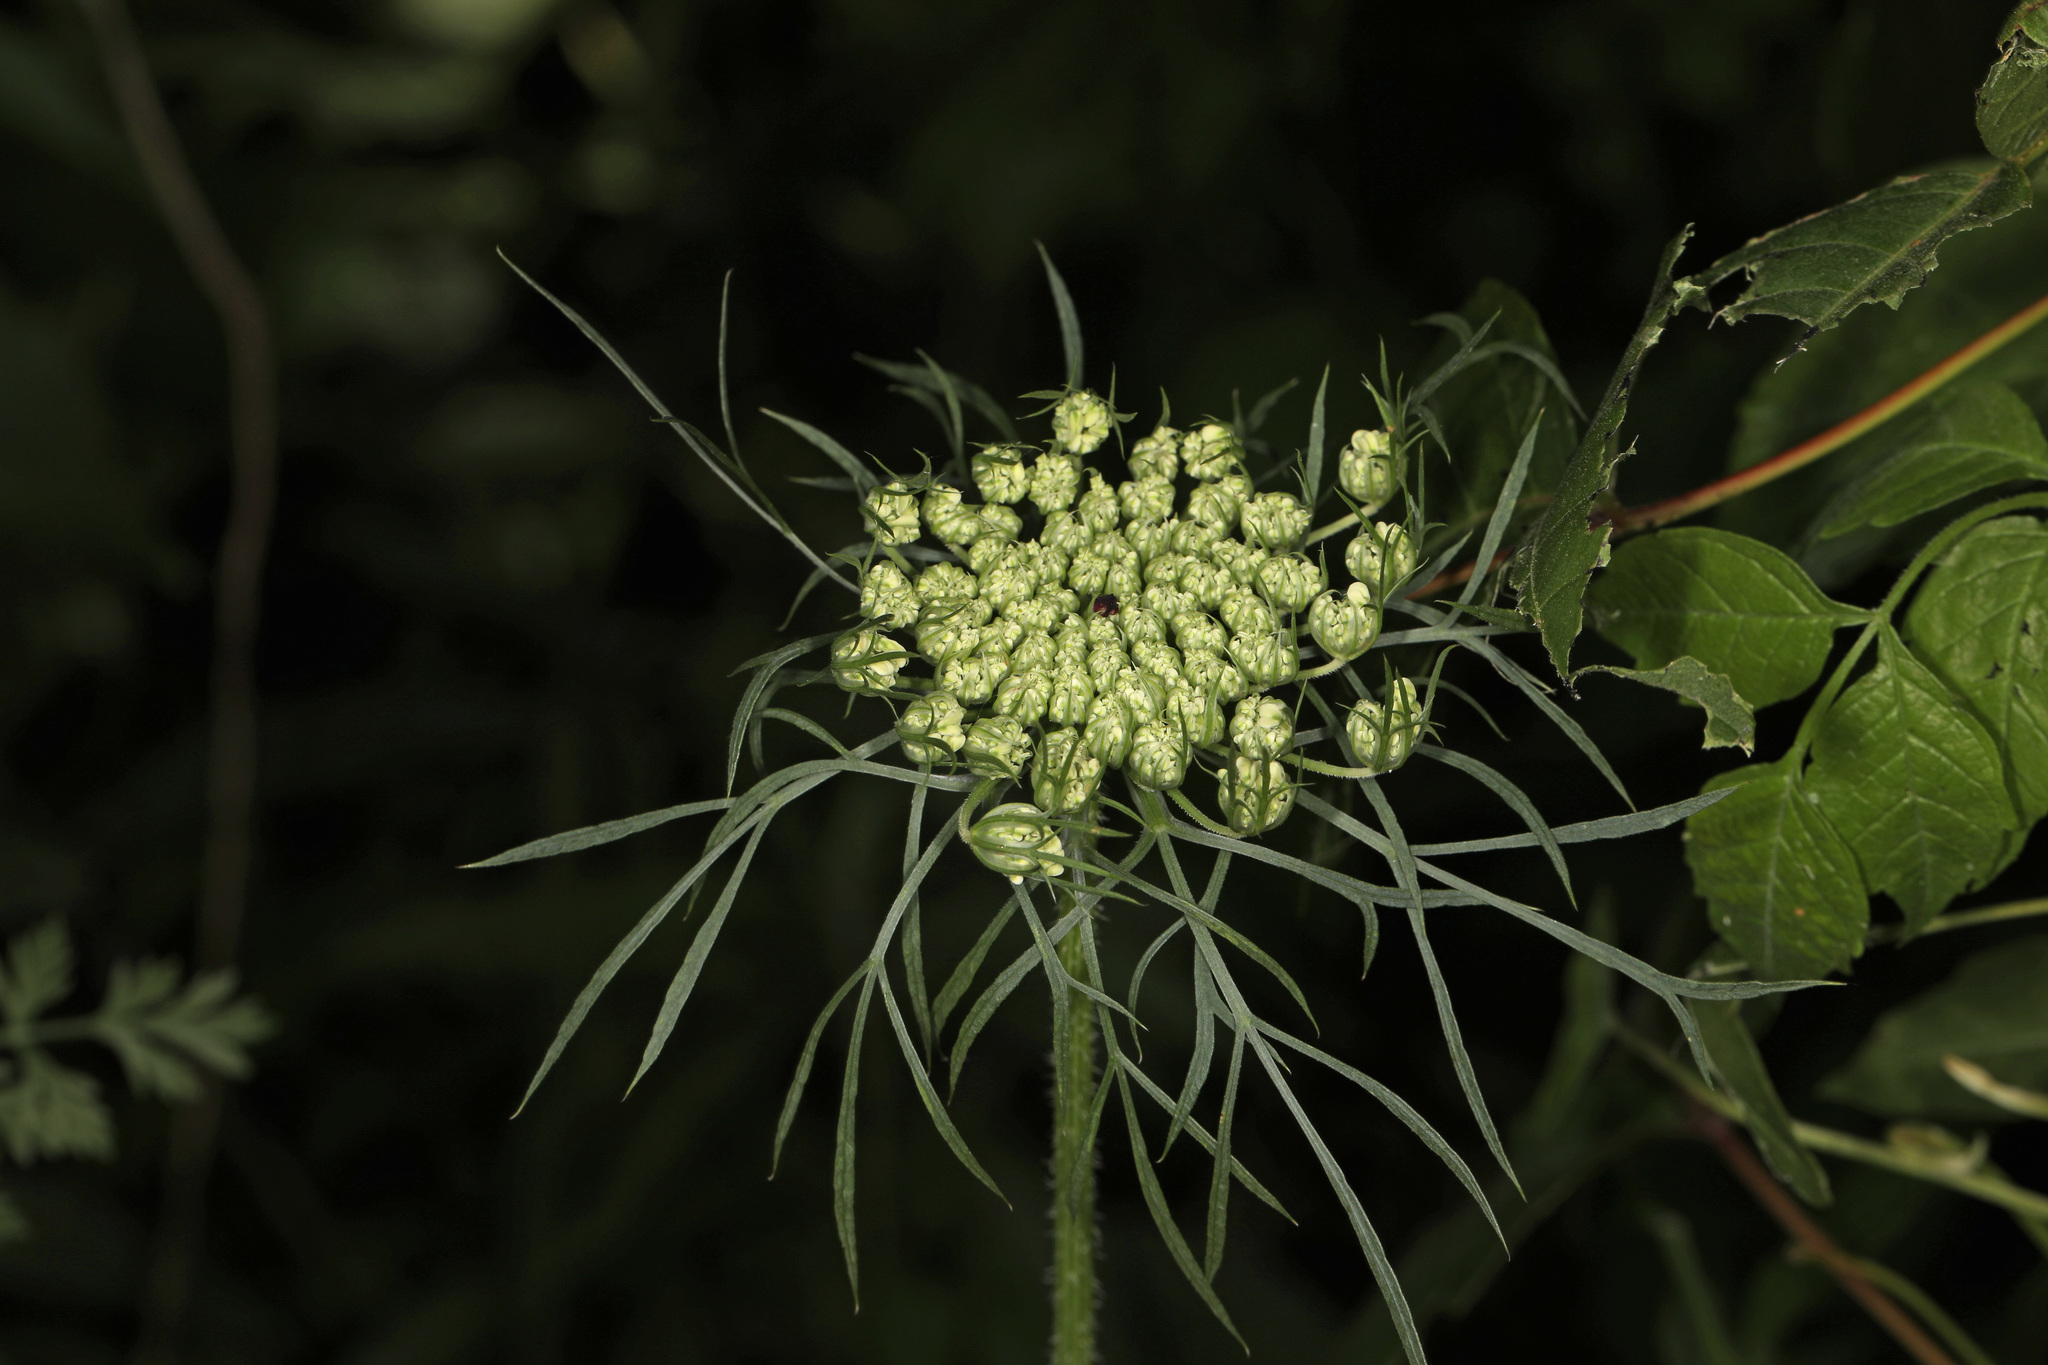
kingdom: Plantae
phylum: Tracheophyta
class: Magnoliopsida
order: Apiales
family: Apiaceae
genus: Daucus
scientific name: Daucus carota
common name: Wild carrot
